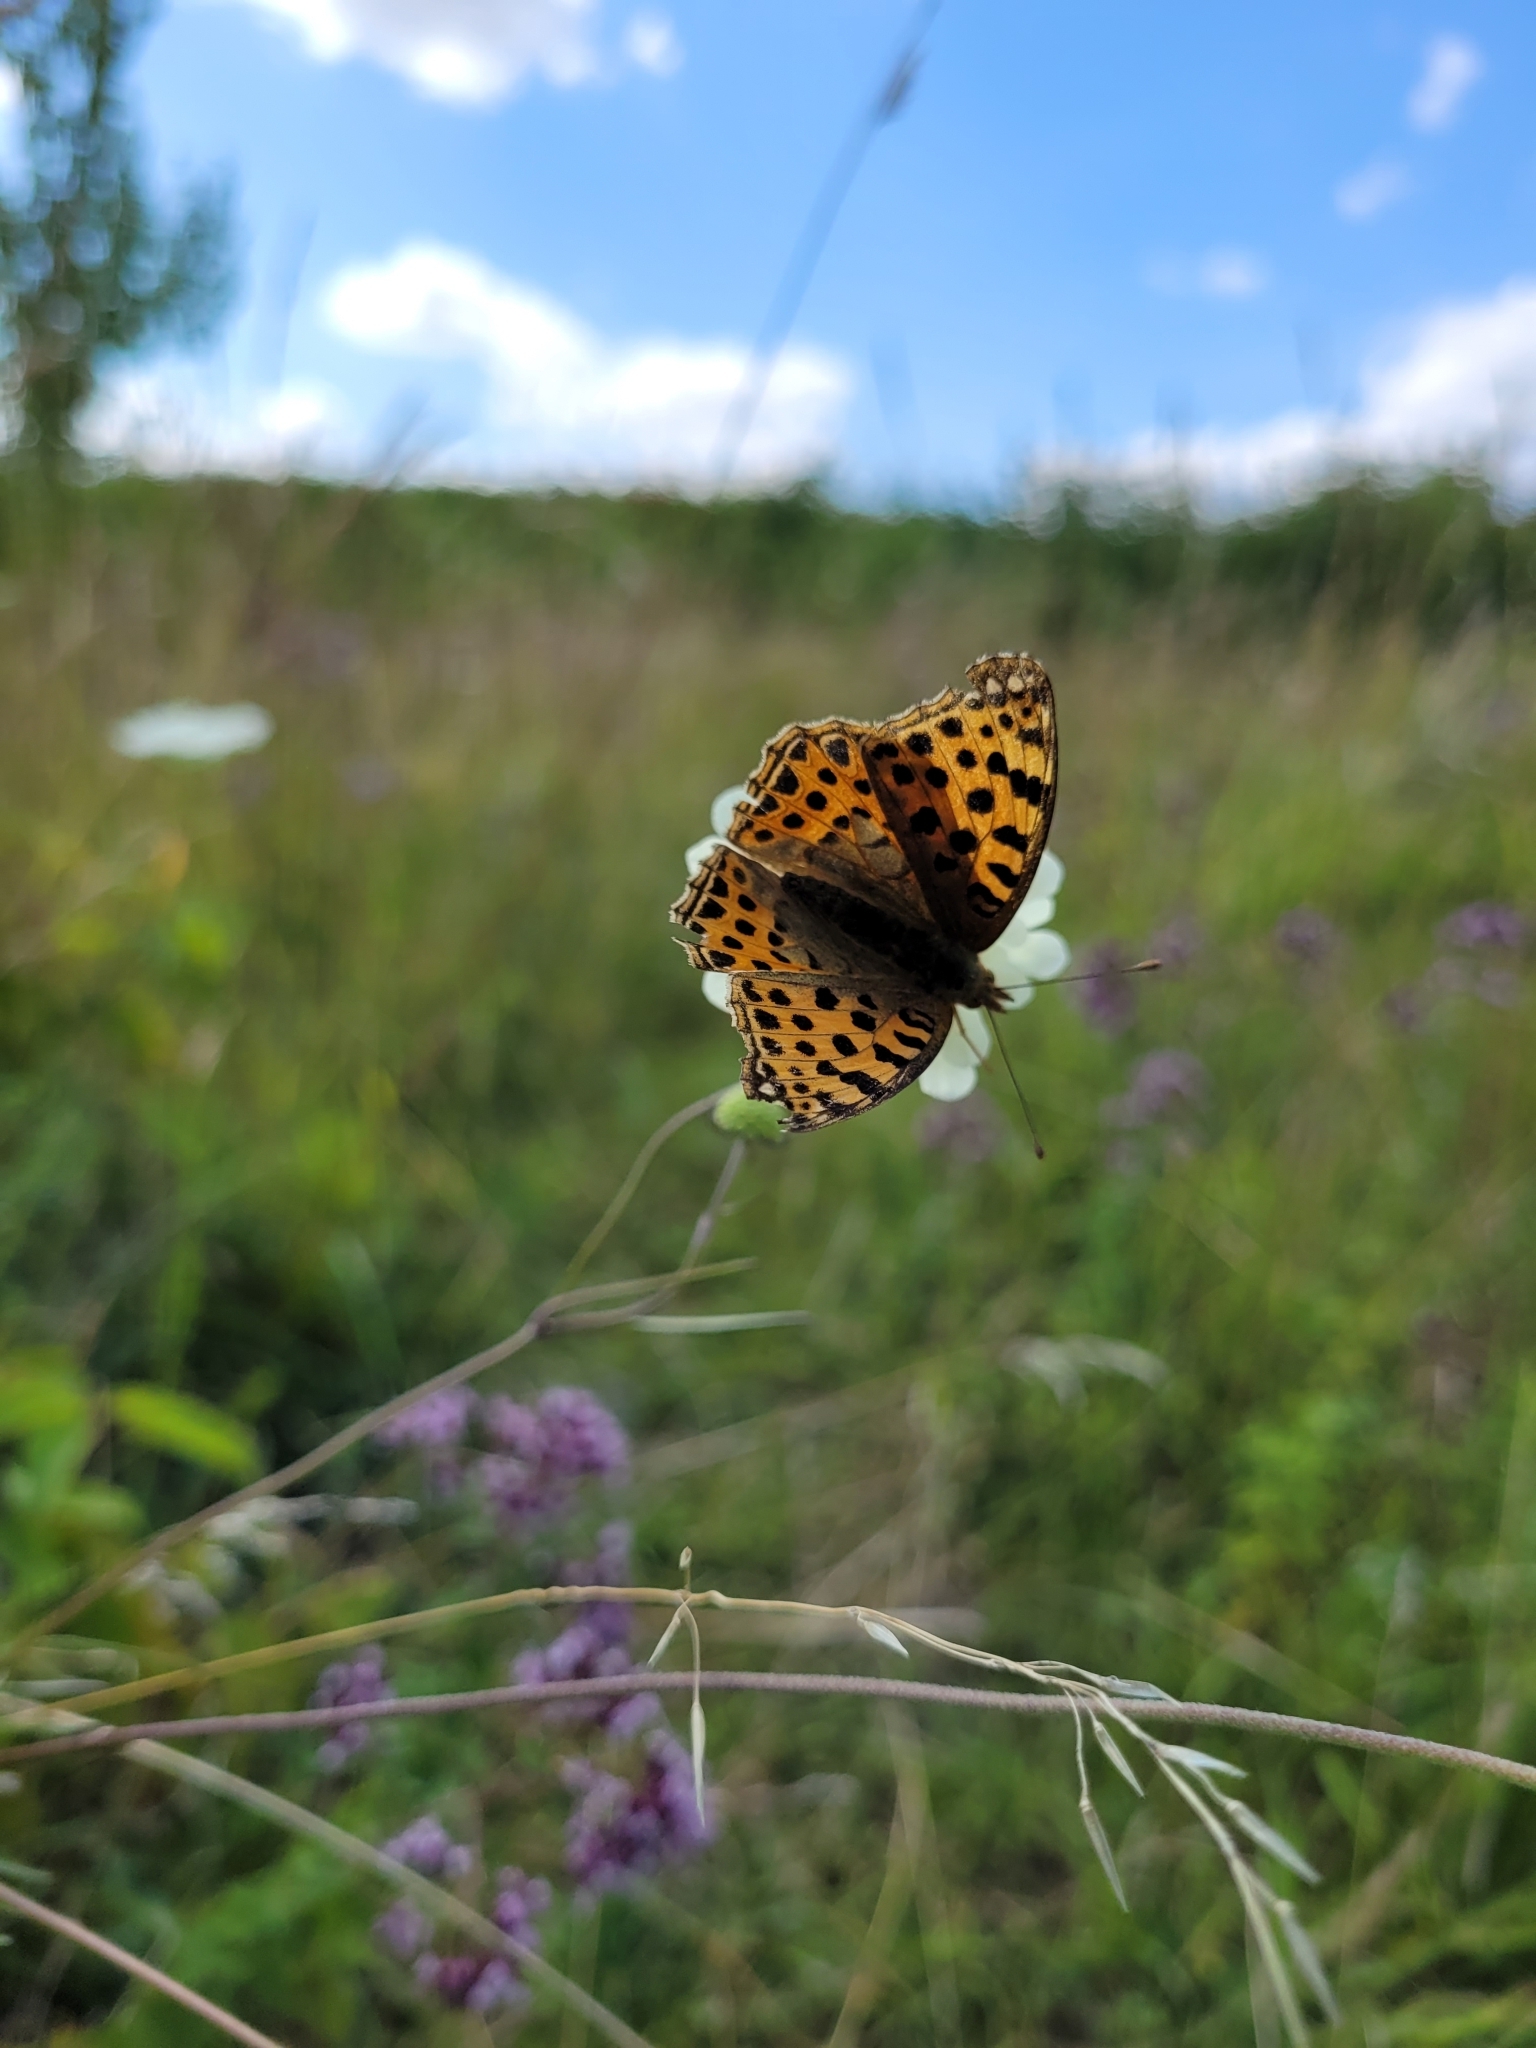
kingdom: Animalia
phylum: Arthropoda
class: Insecta
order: Lepidoptera
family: Nymphalidae
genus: Issoria
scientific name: Issoria lathonia
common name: Queen of spain fritillary
